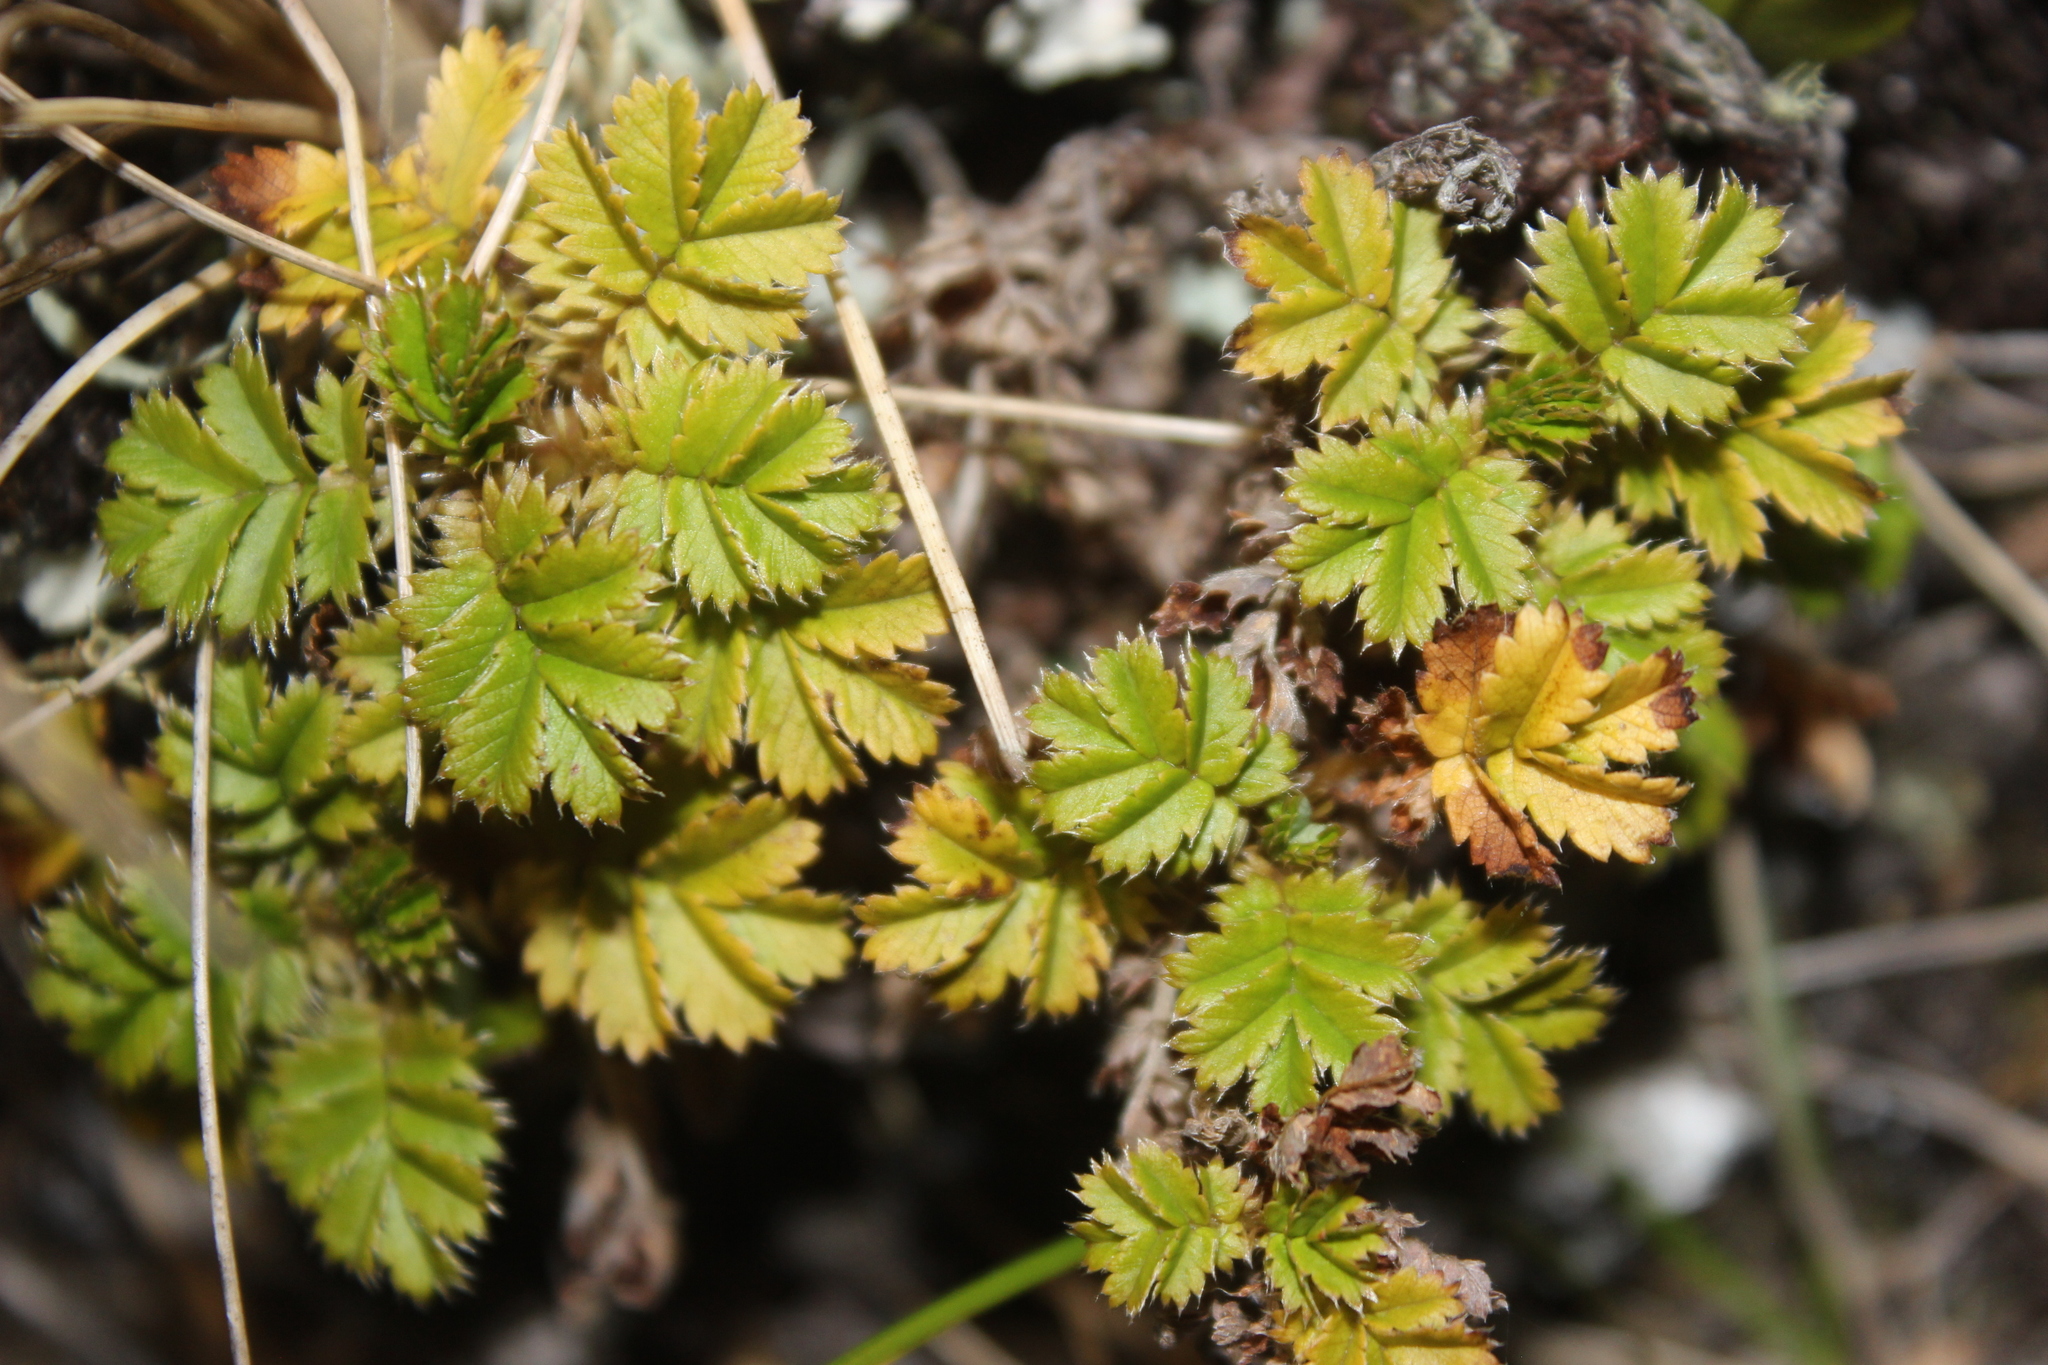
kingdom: Plantae
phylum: Tracheophyta
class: Magnoliopsida
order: Rosales
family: Rosaceae
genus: Acaena
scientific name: Acaena anserinifolia
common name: Bronze pirri-pirri-bur
